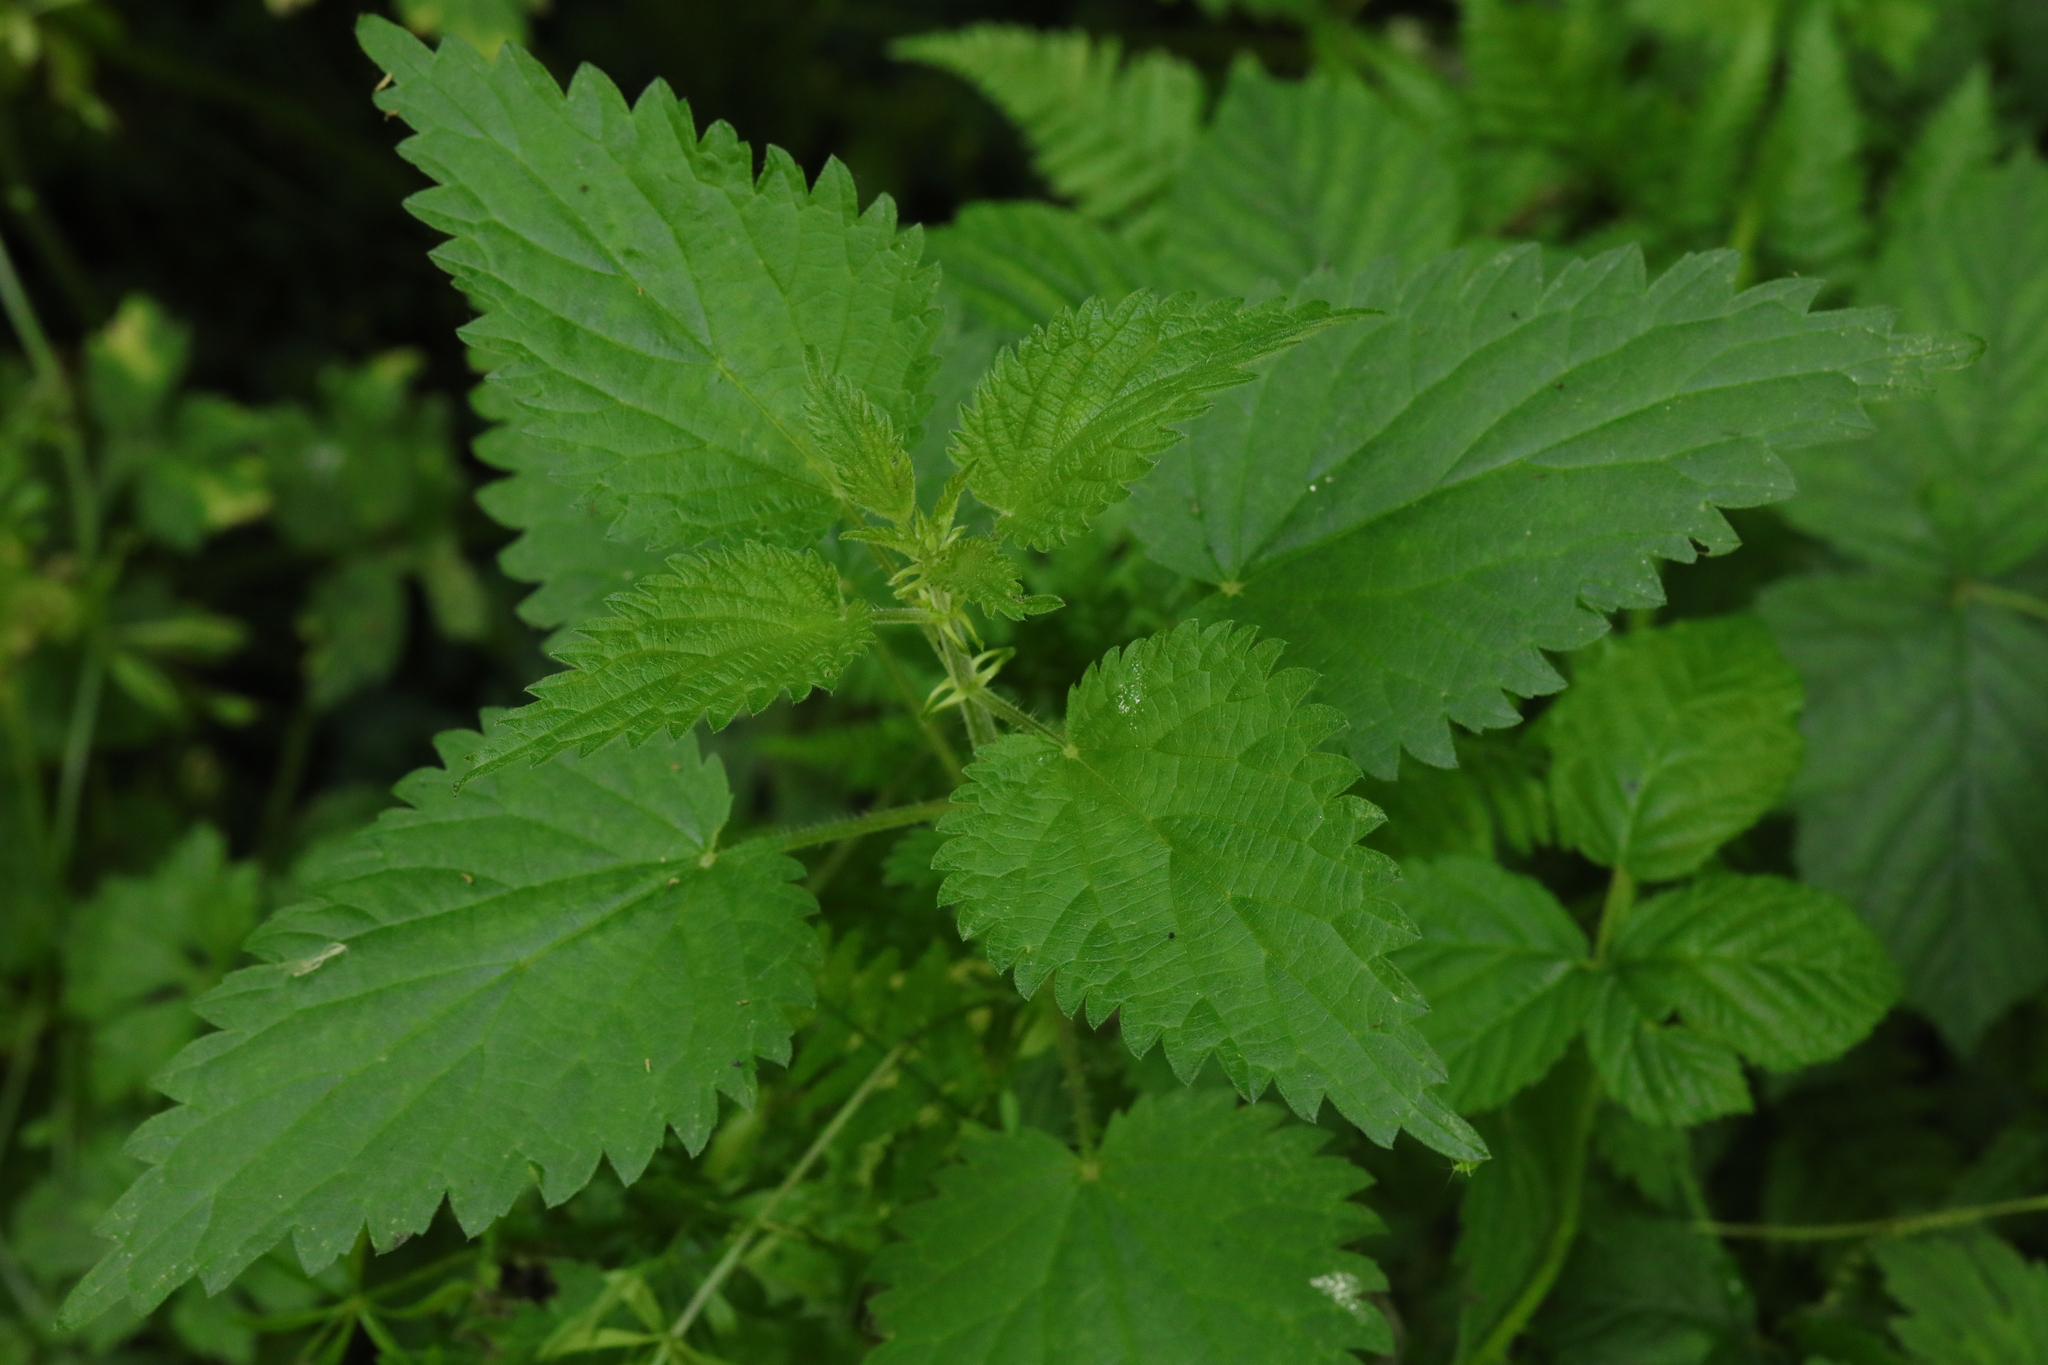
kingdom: Plantae
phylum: Tracheophyta
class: Magnoliopsida
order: Rosales
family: Urticaceae
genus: Urtica
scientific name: Urtica dioica
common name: Common nettle
